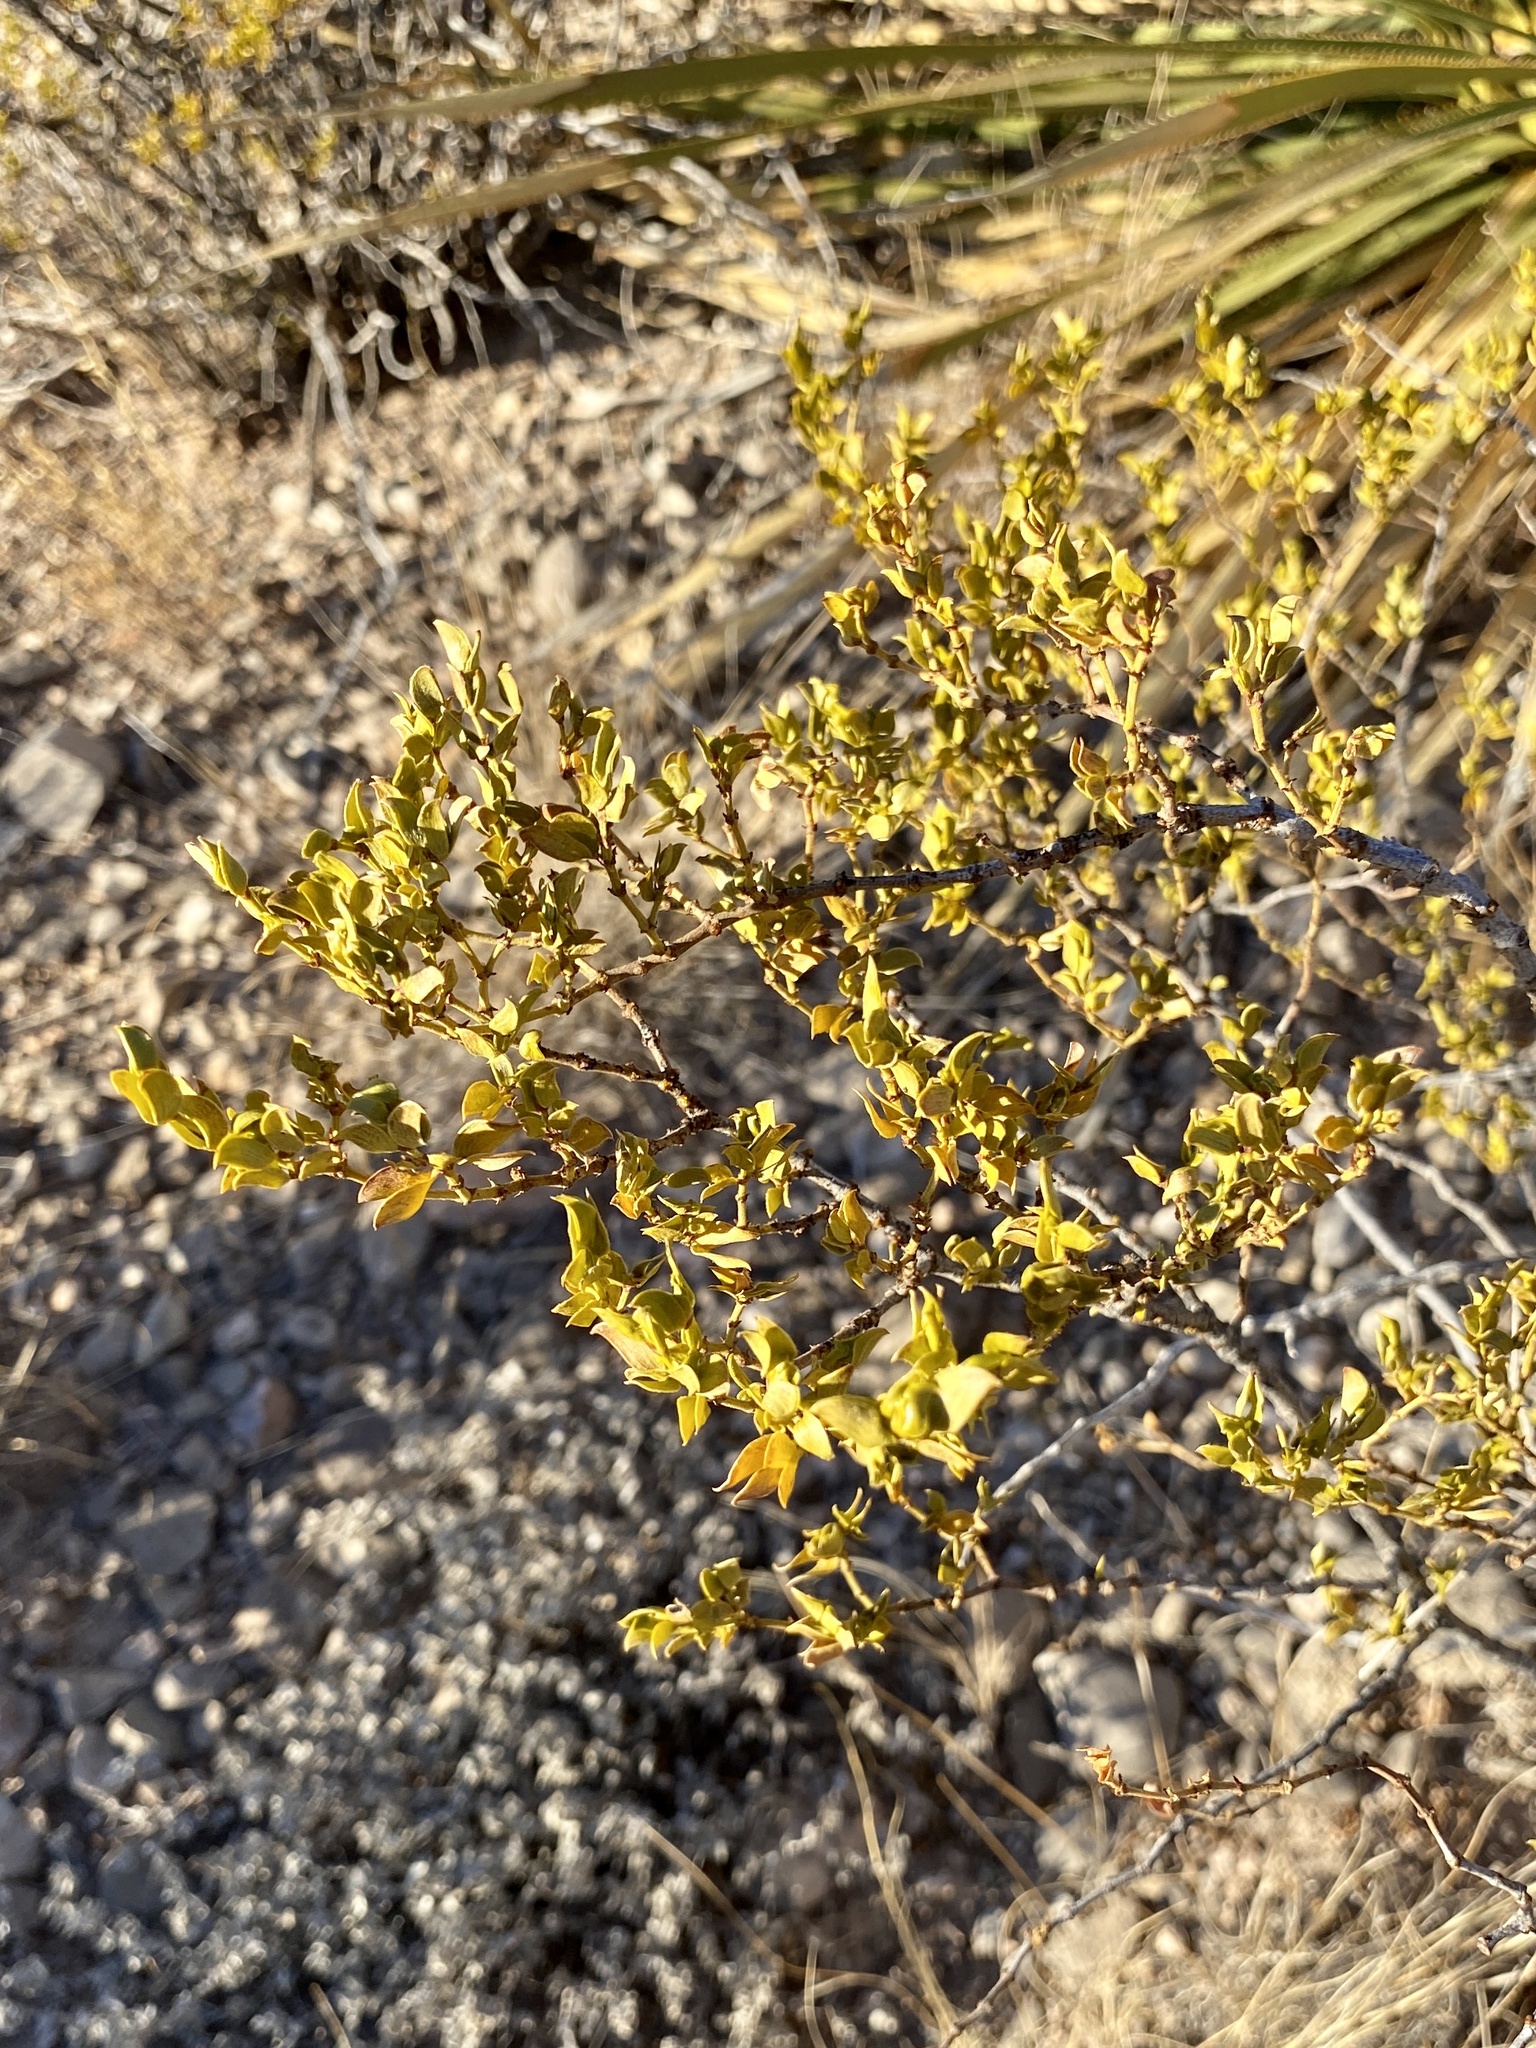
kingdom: Plantae
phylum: Tracheophyta
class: Magnoliopsida
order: Zygophyllales
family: Zygophyllaceae
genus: Larrea
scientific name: Larrea tridentata
